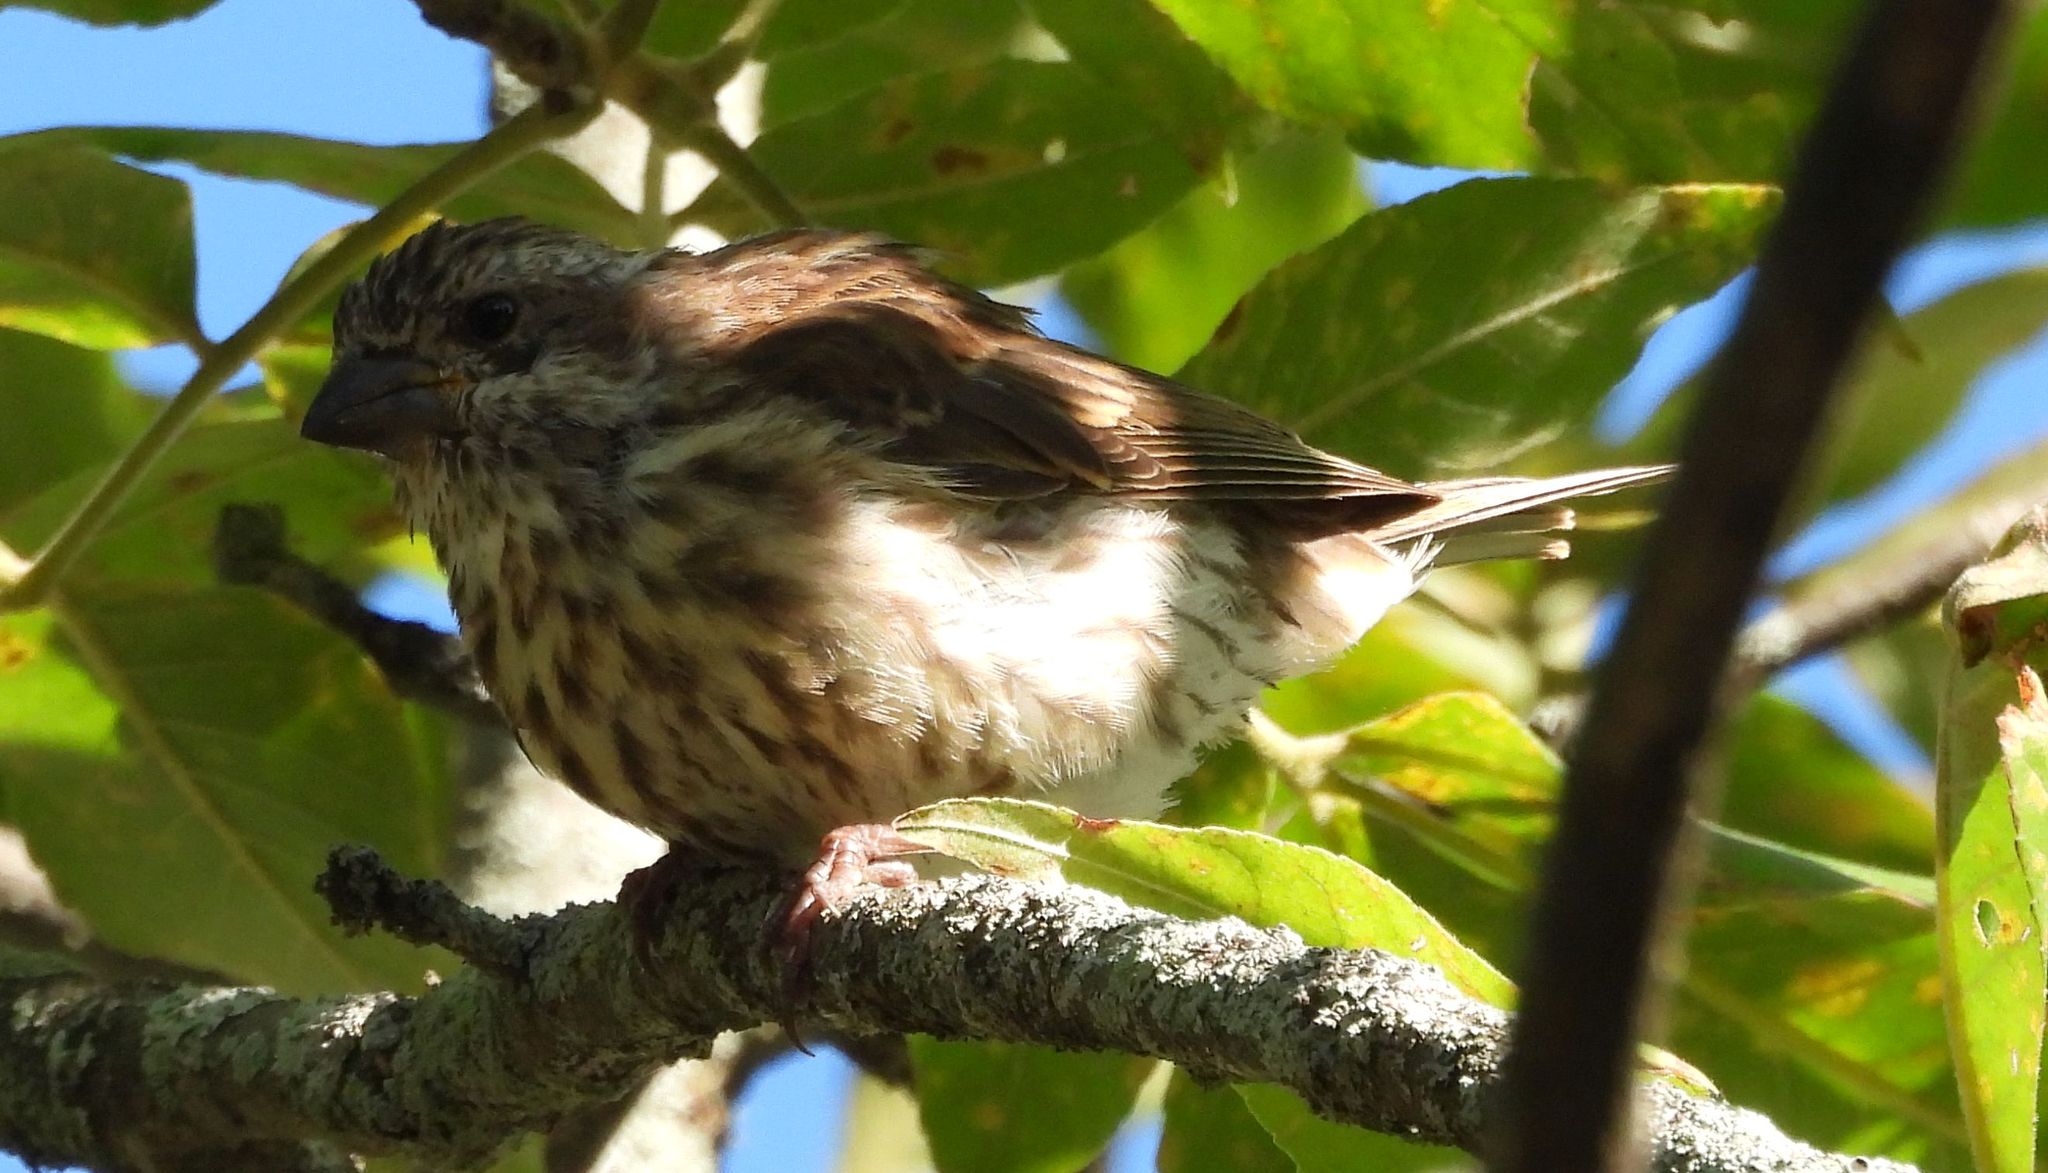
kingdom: Animalia
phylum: Chordata
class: Aves
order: Passeriformes
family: Fringillidae
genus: Haemorhous
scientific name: Haemorhous purpureus
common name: Purple finch
